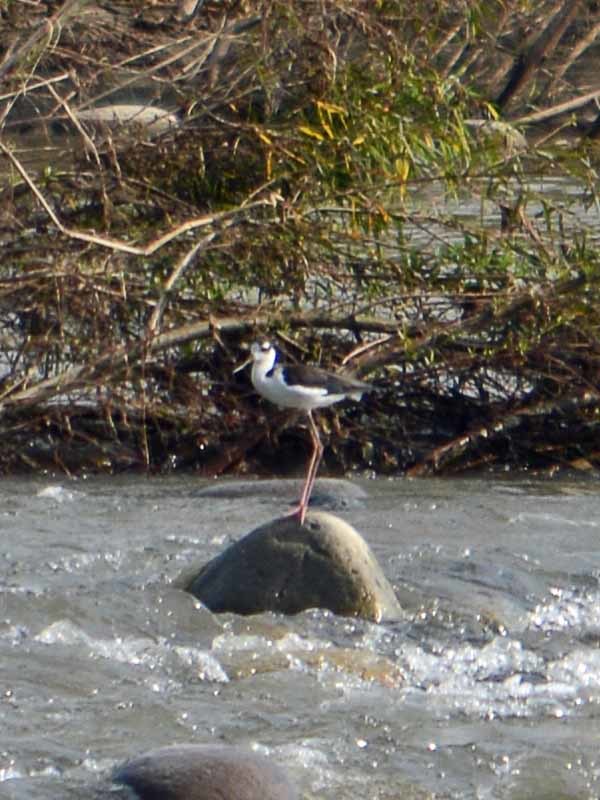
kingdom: Animalia
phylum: Chordata
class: Aves
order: Charadriiformes
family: Recurvirostridae
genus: Himantopus
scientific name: Himantopus mexicanus
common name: Black-necked stilt
